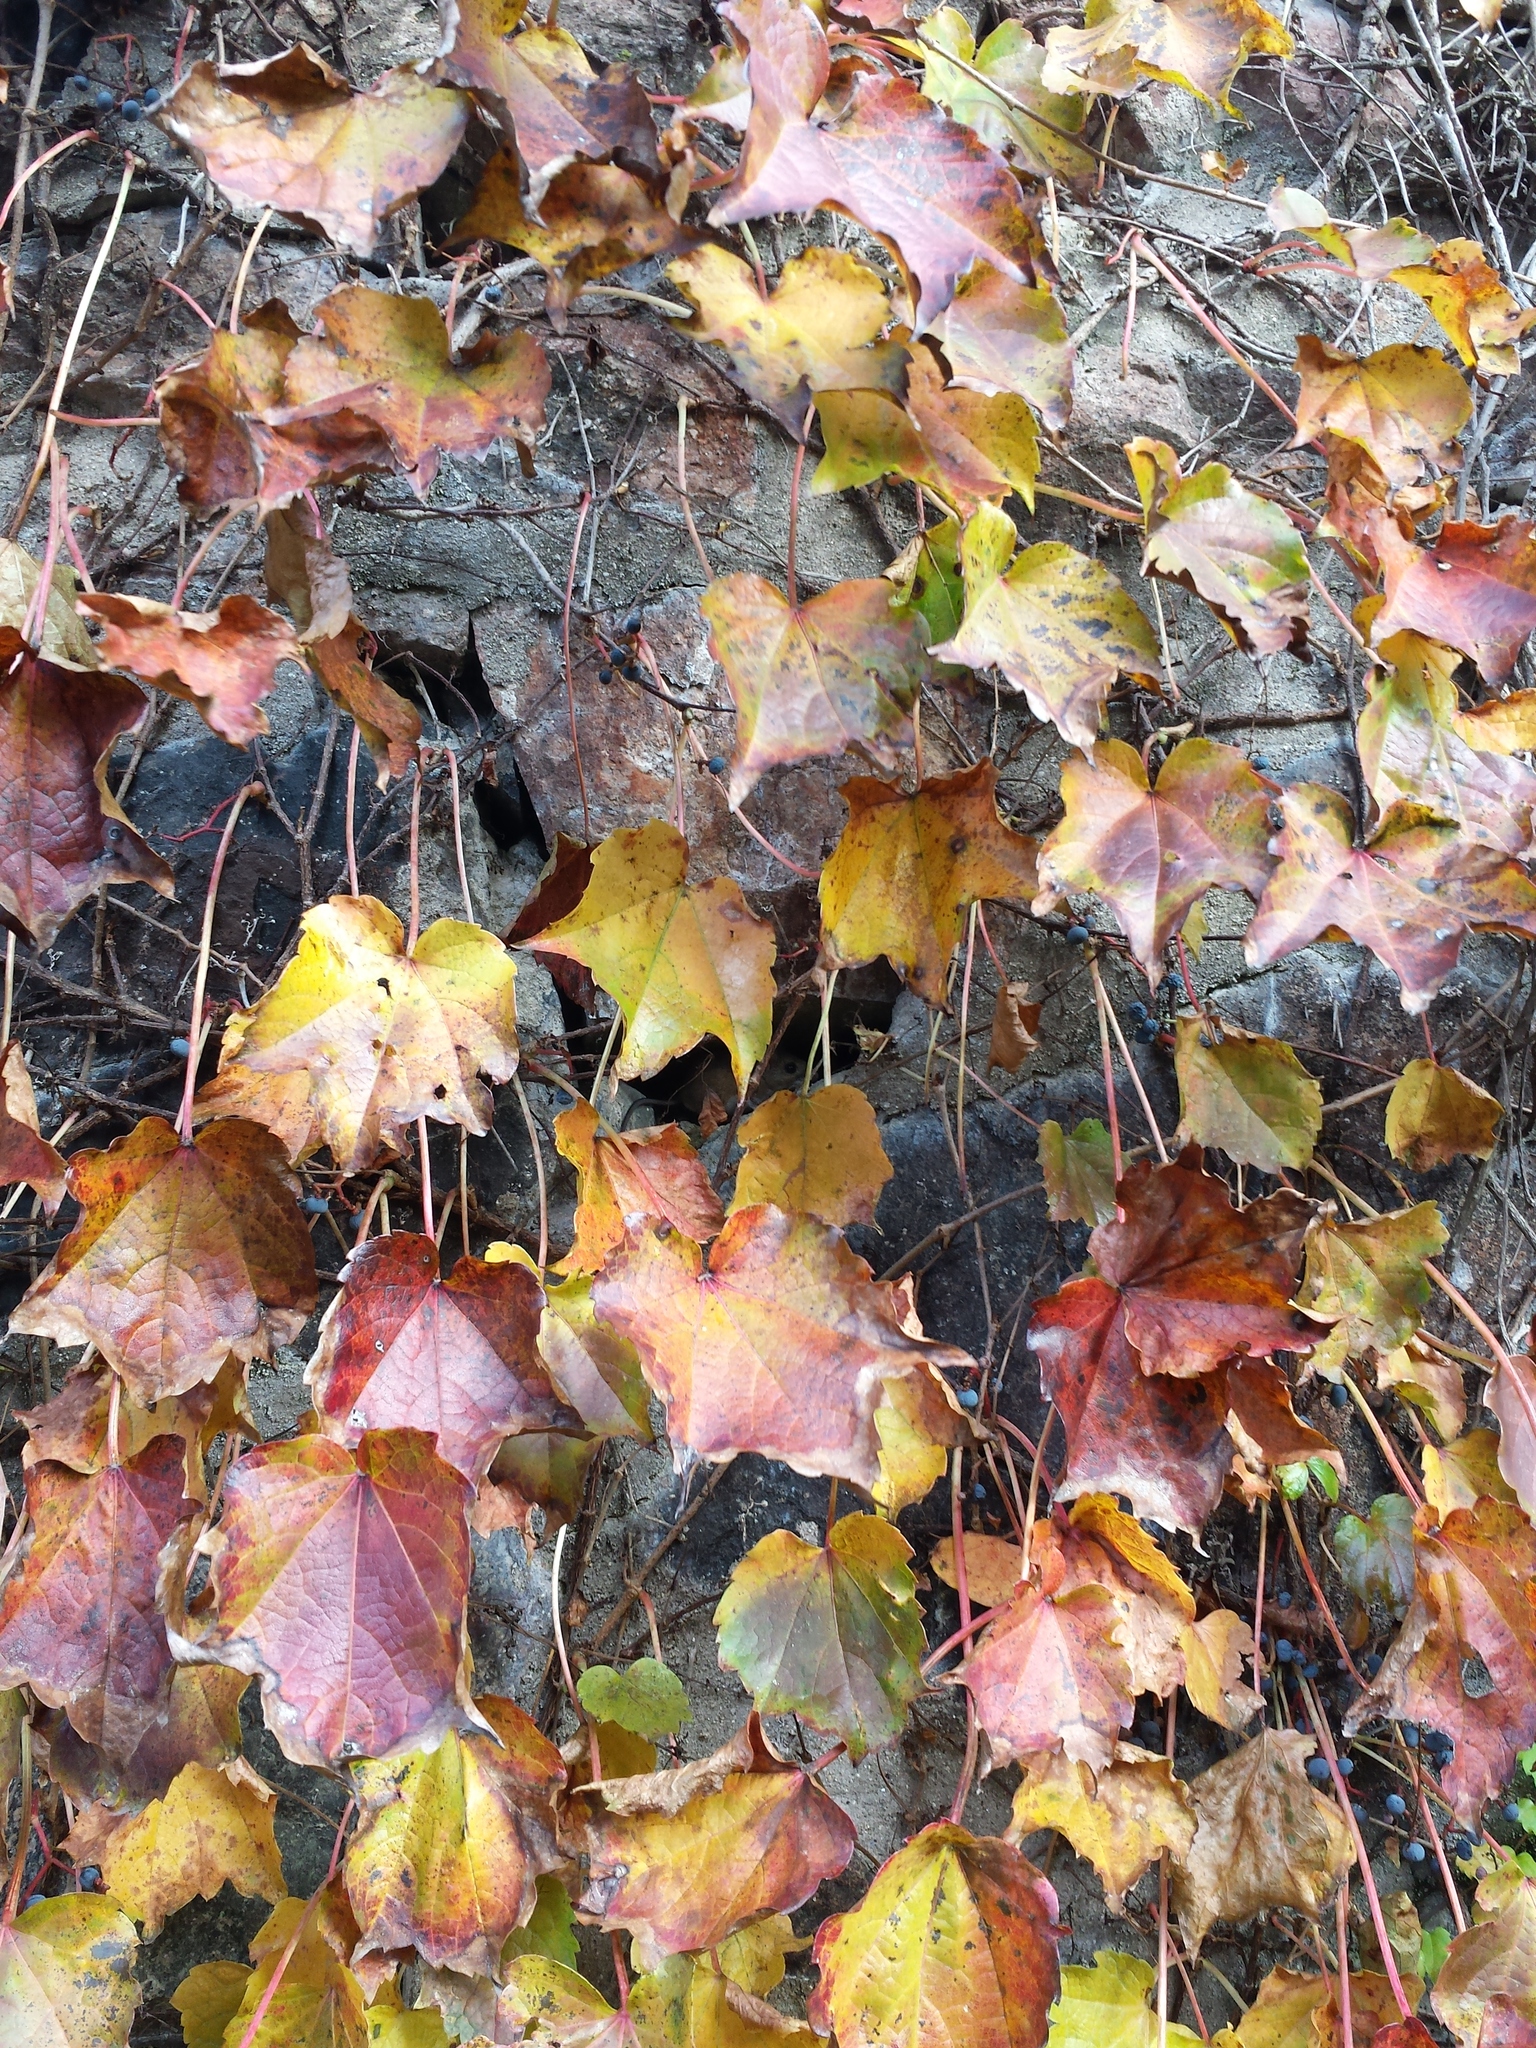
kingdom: Plantae
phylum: Tracheophyta
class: Magnoliopsida
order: Vitales
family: Vitaceae
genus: Parthenocissus
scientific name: Parthenocissus tricuspidata
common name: Boston ivy
